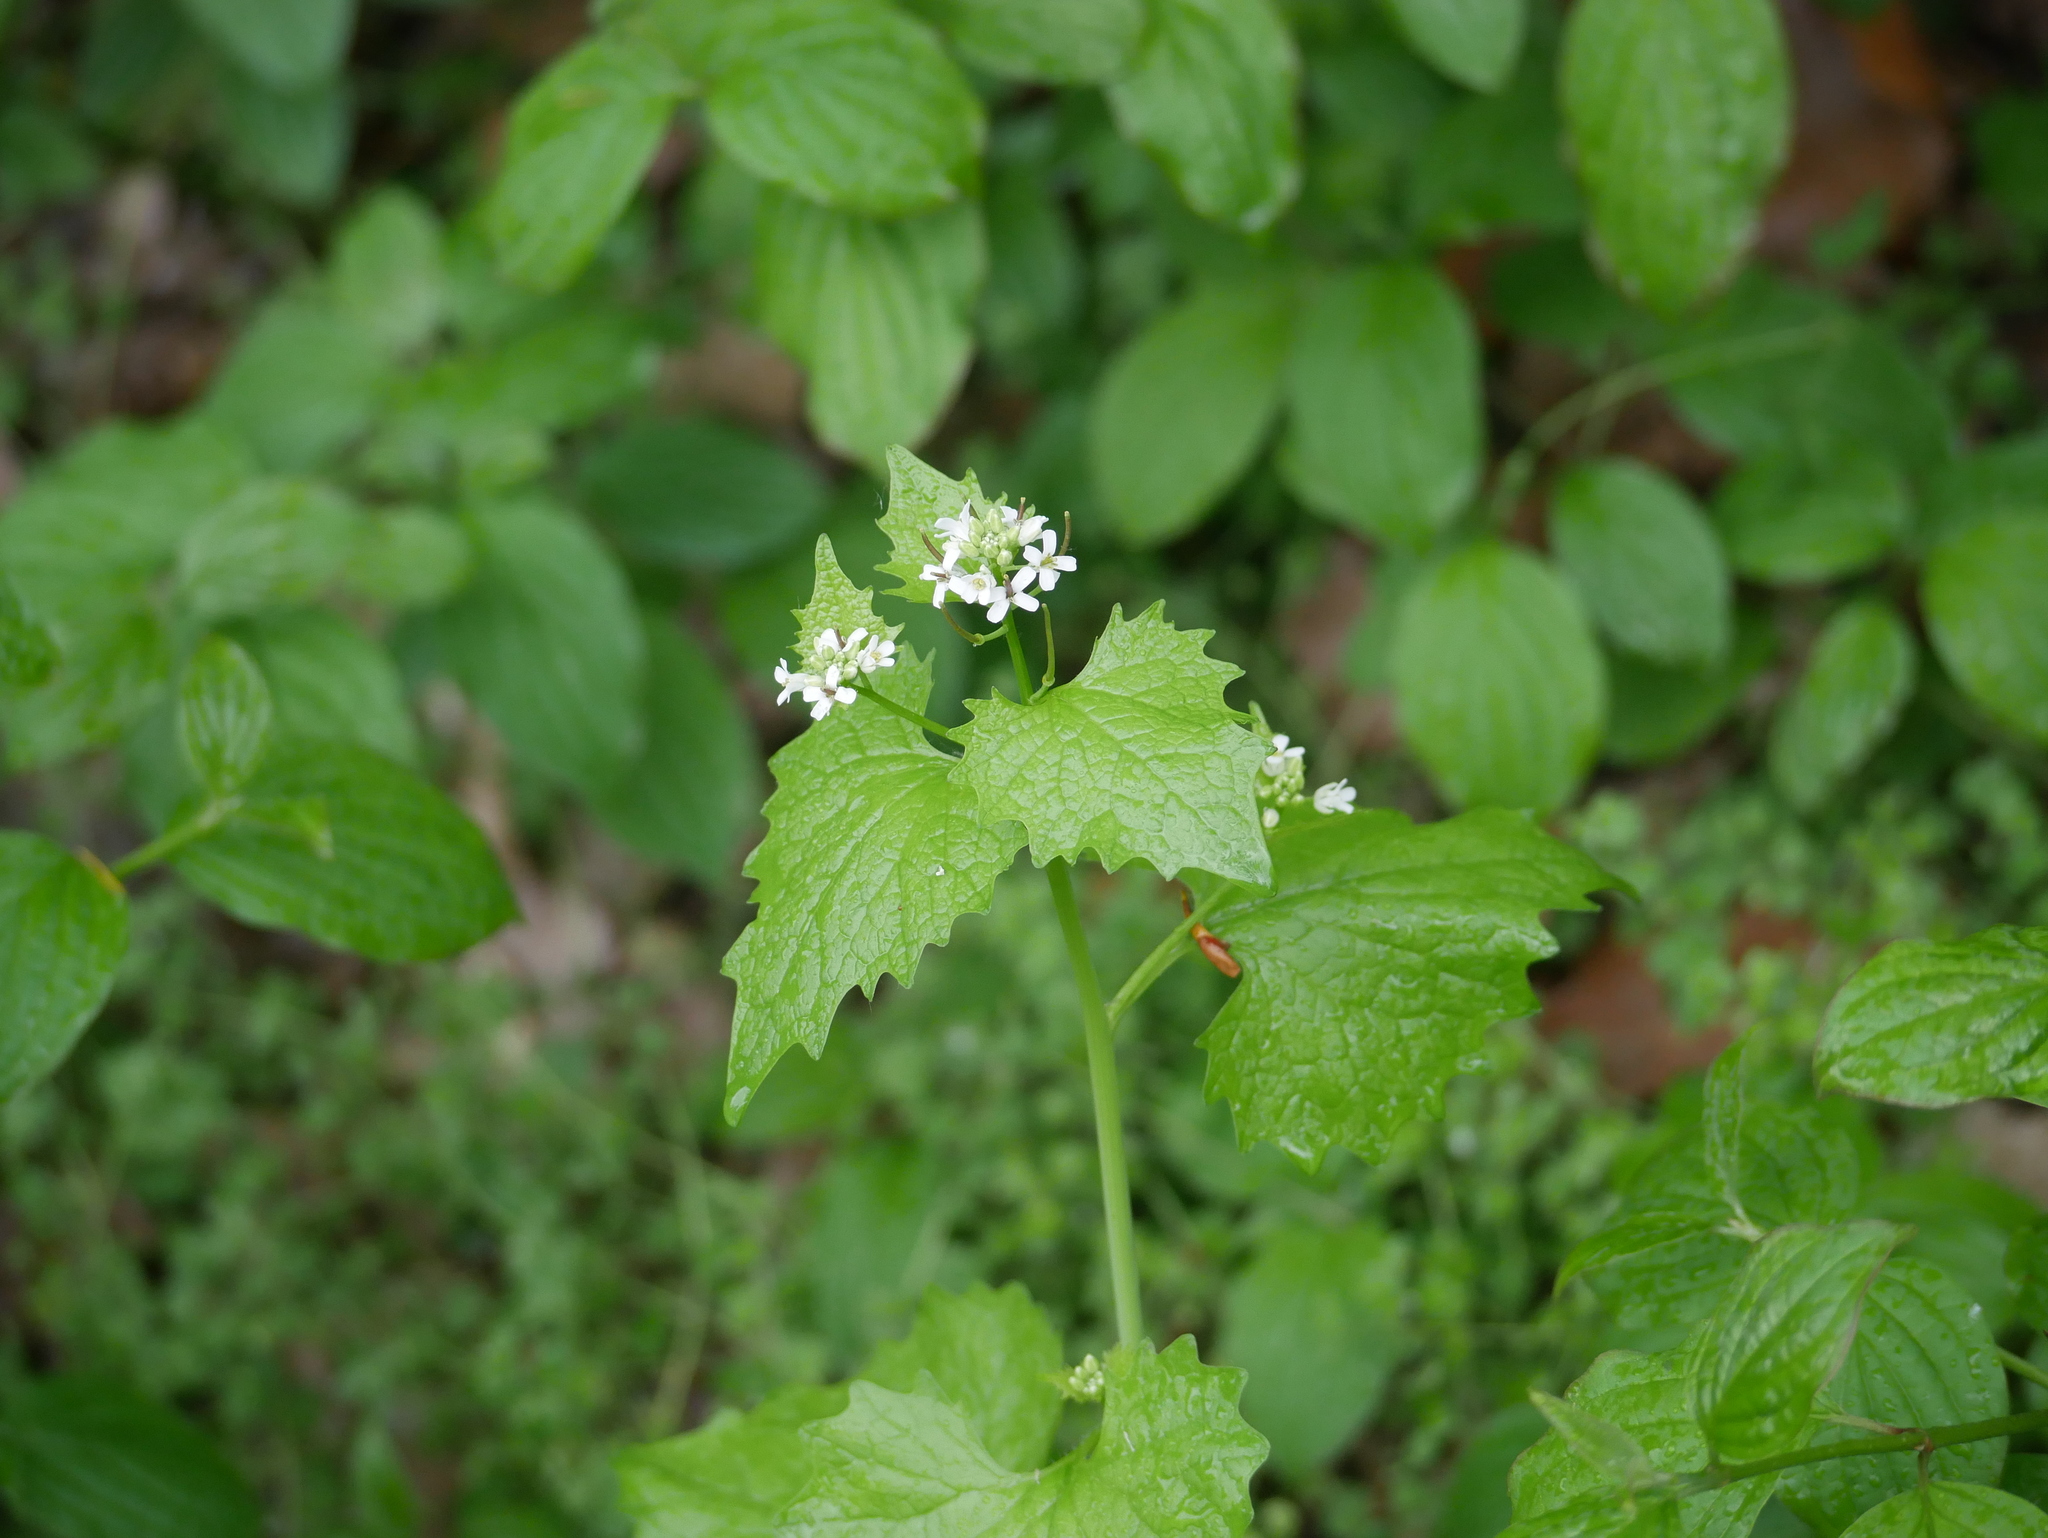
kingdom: Plantae
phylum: Tracheophyta
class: Magnoliopsida
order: Brassicales
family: Brassicaceae
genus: Alliaria
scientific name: Alliaria petiolata
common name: Garlic mustard
